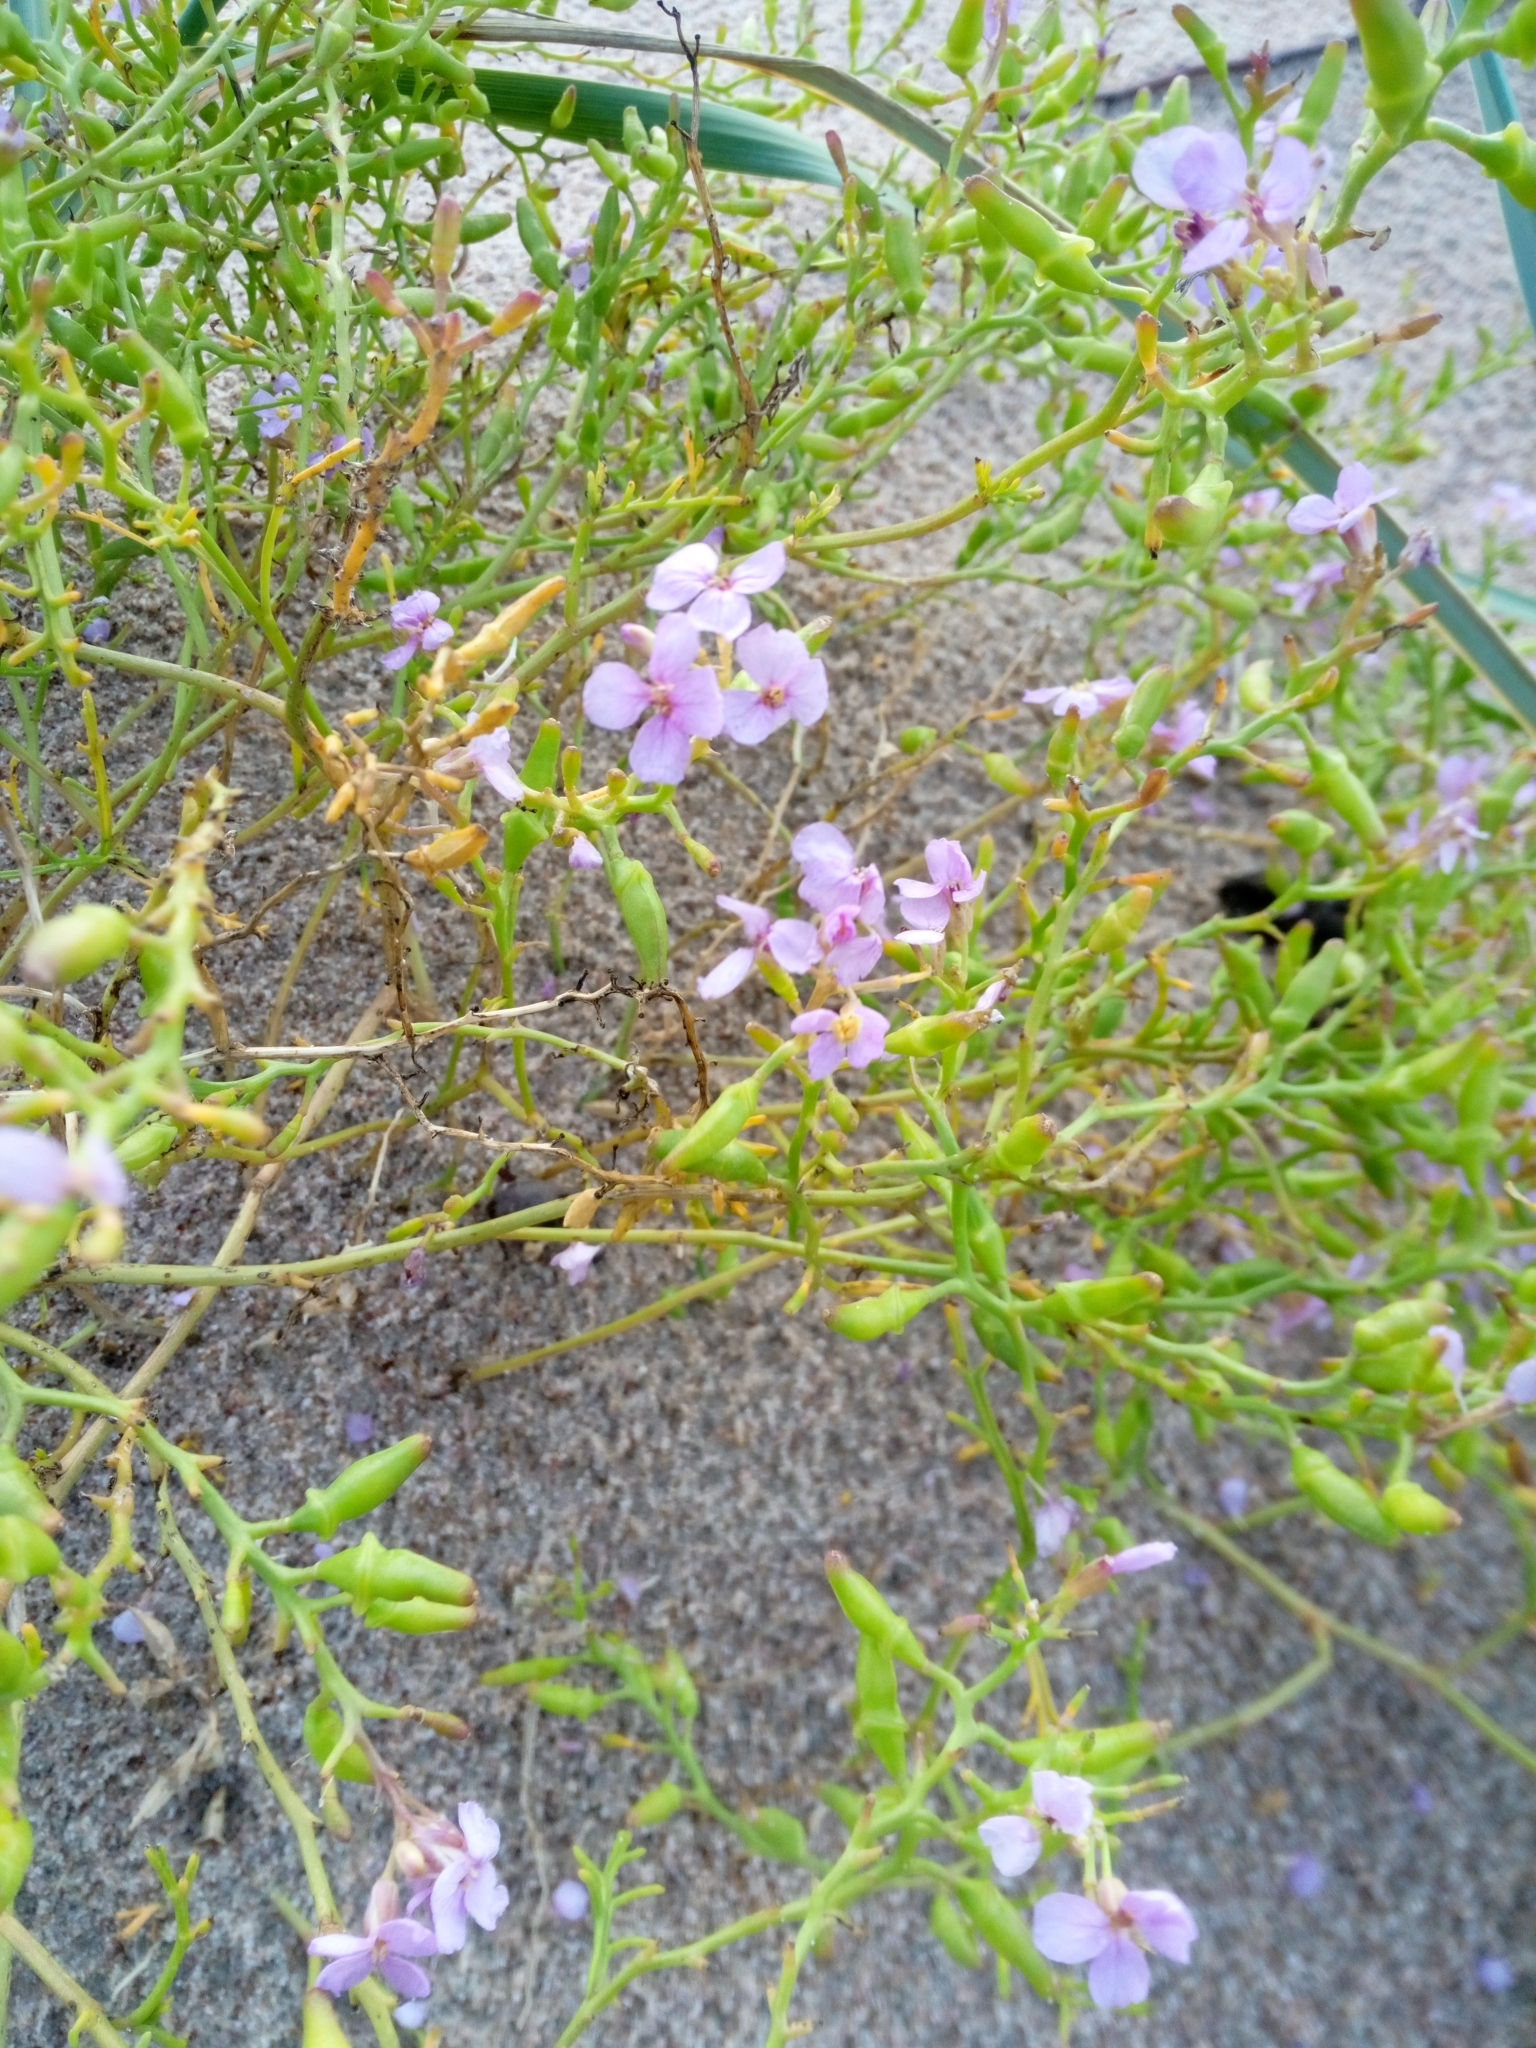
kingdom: Plantae
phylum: Tracheophyta
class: Magnoliopsida
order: Brassicales
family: Brassicaceae
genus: Cakile
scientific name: Cakile maritima
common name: Sea rocket
